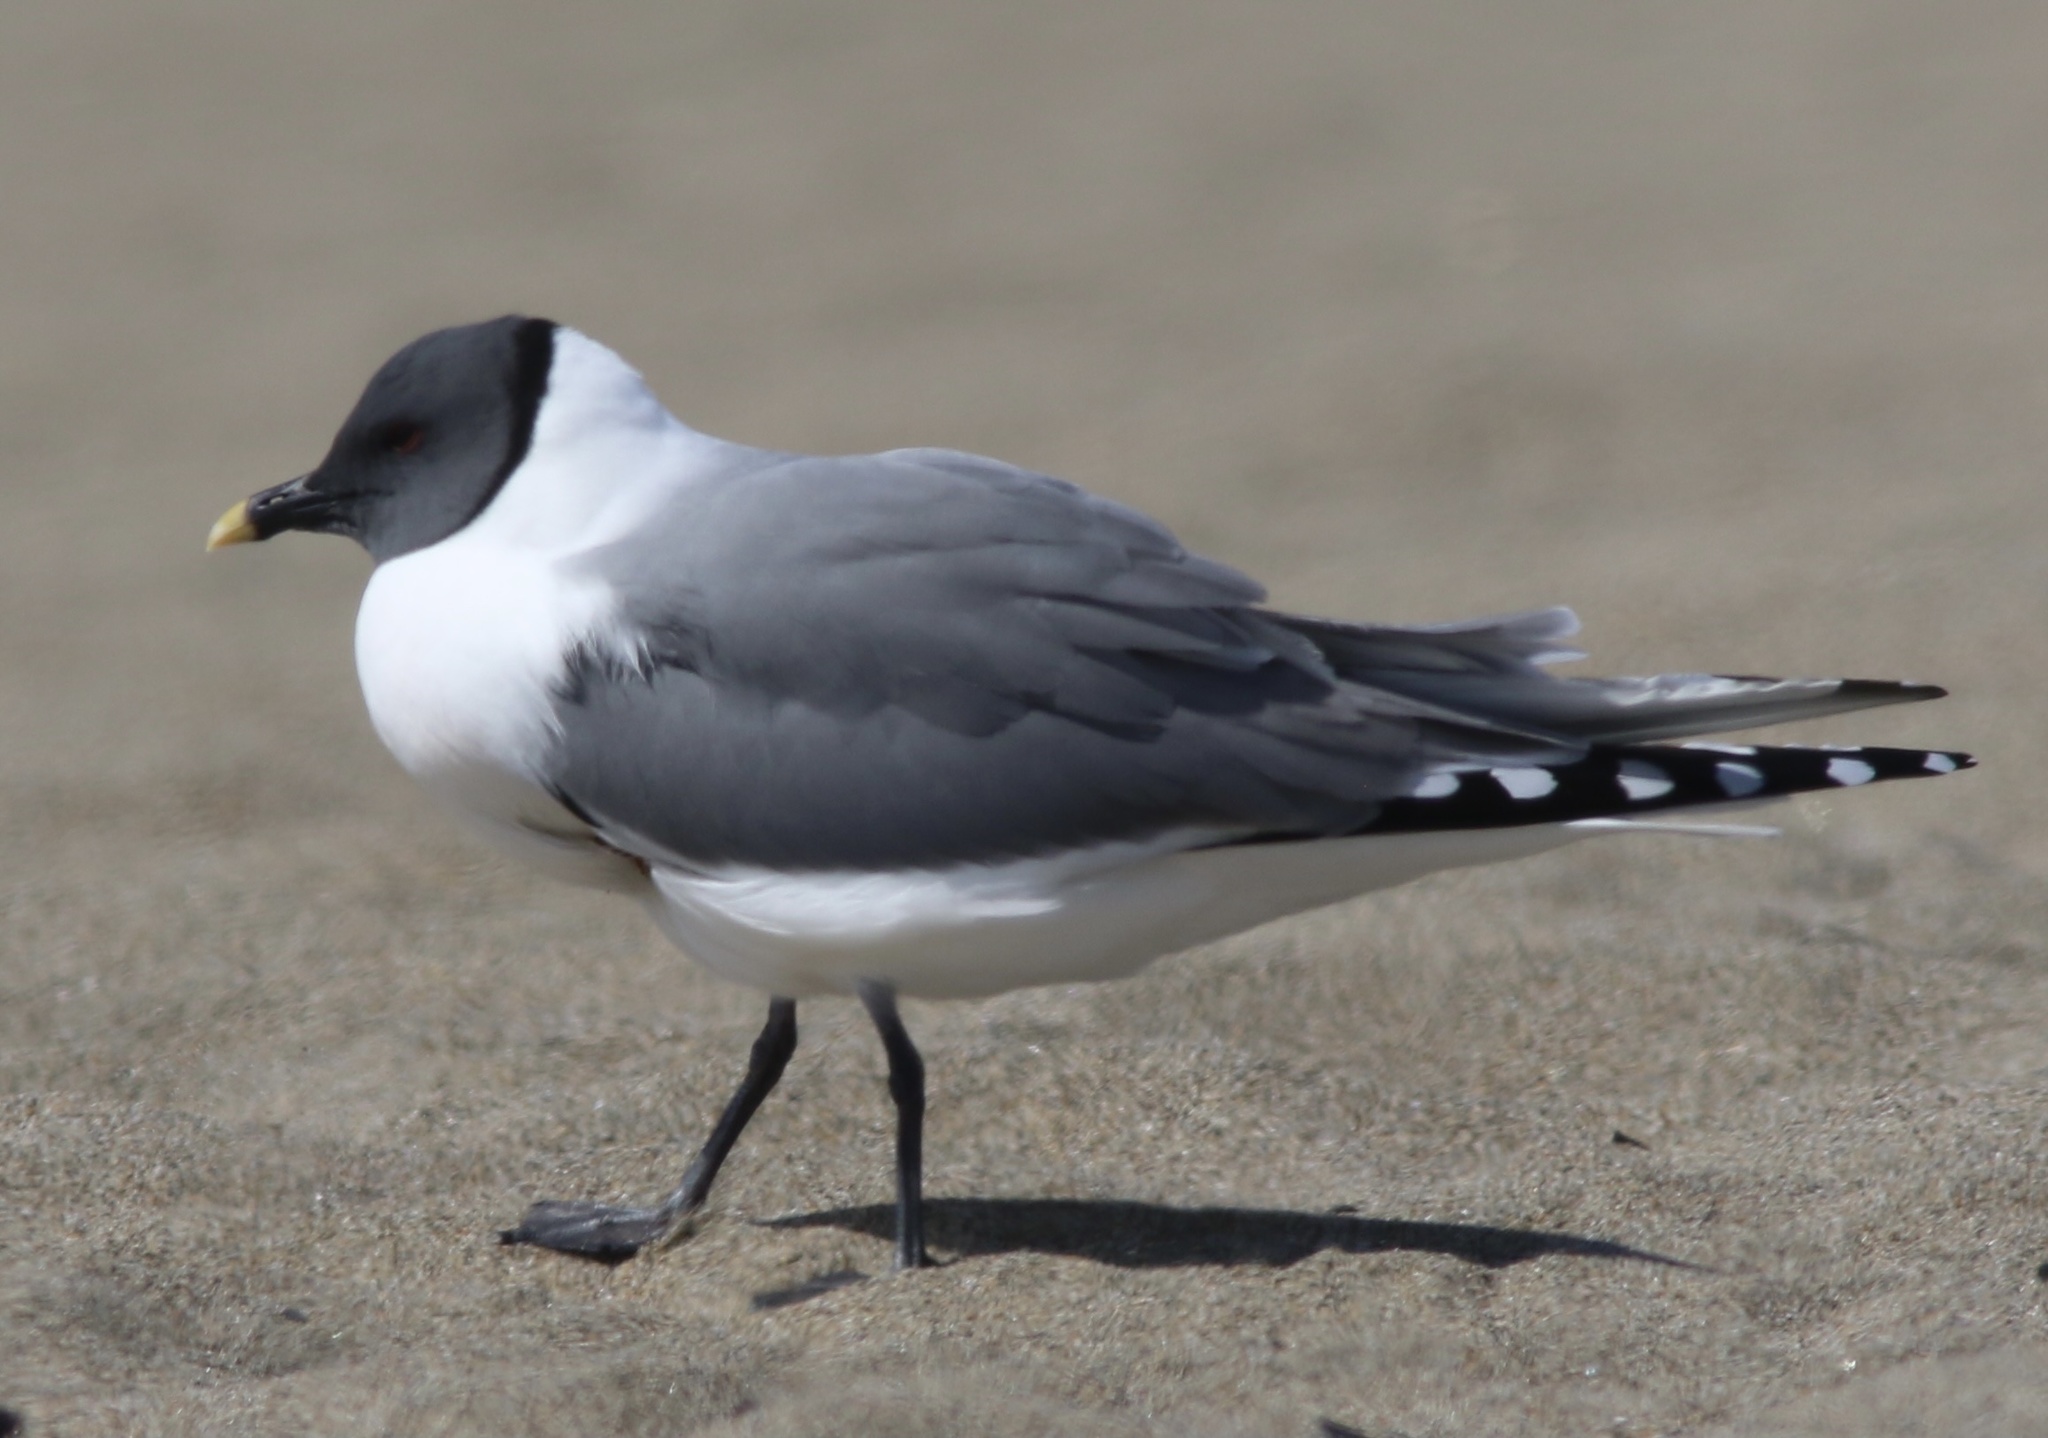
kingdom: Animalia
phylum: Chordata
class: Aves
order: Charadriiformes
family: Laridae
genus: Xema
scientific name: Xema sabini
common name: Sabine's gull
